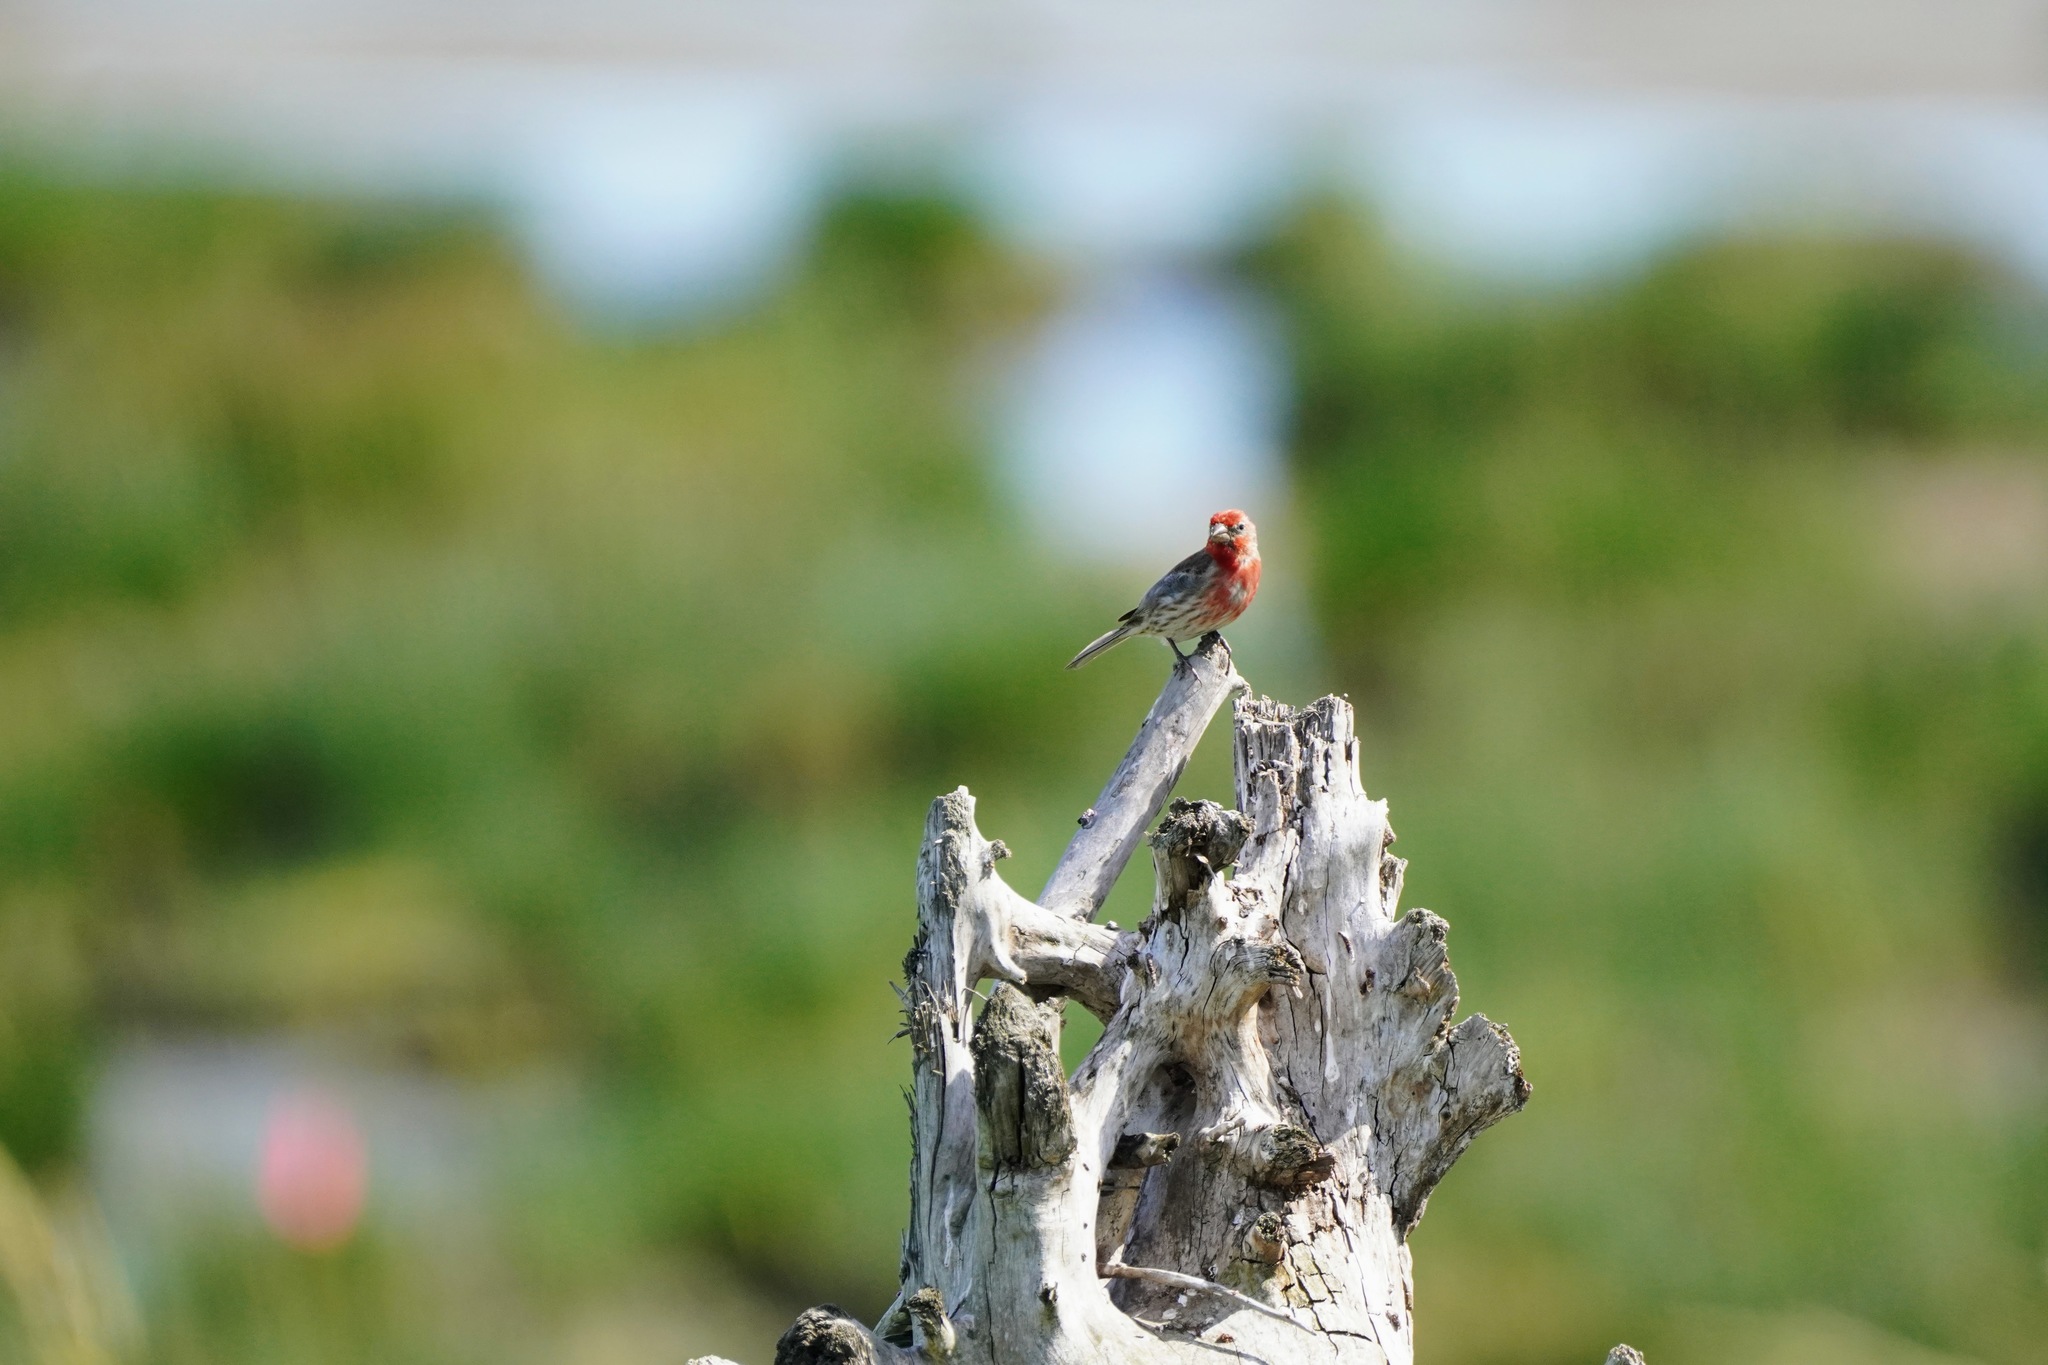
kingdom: Animalia
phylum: Chordata
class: Aves
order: Passeriformes
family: Fringillidae
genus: Haemorhous
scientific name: Haemorhous mexicanus
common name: House finch
